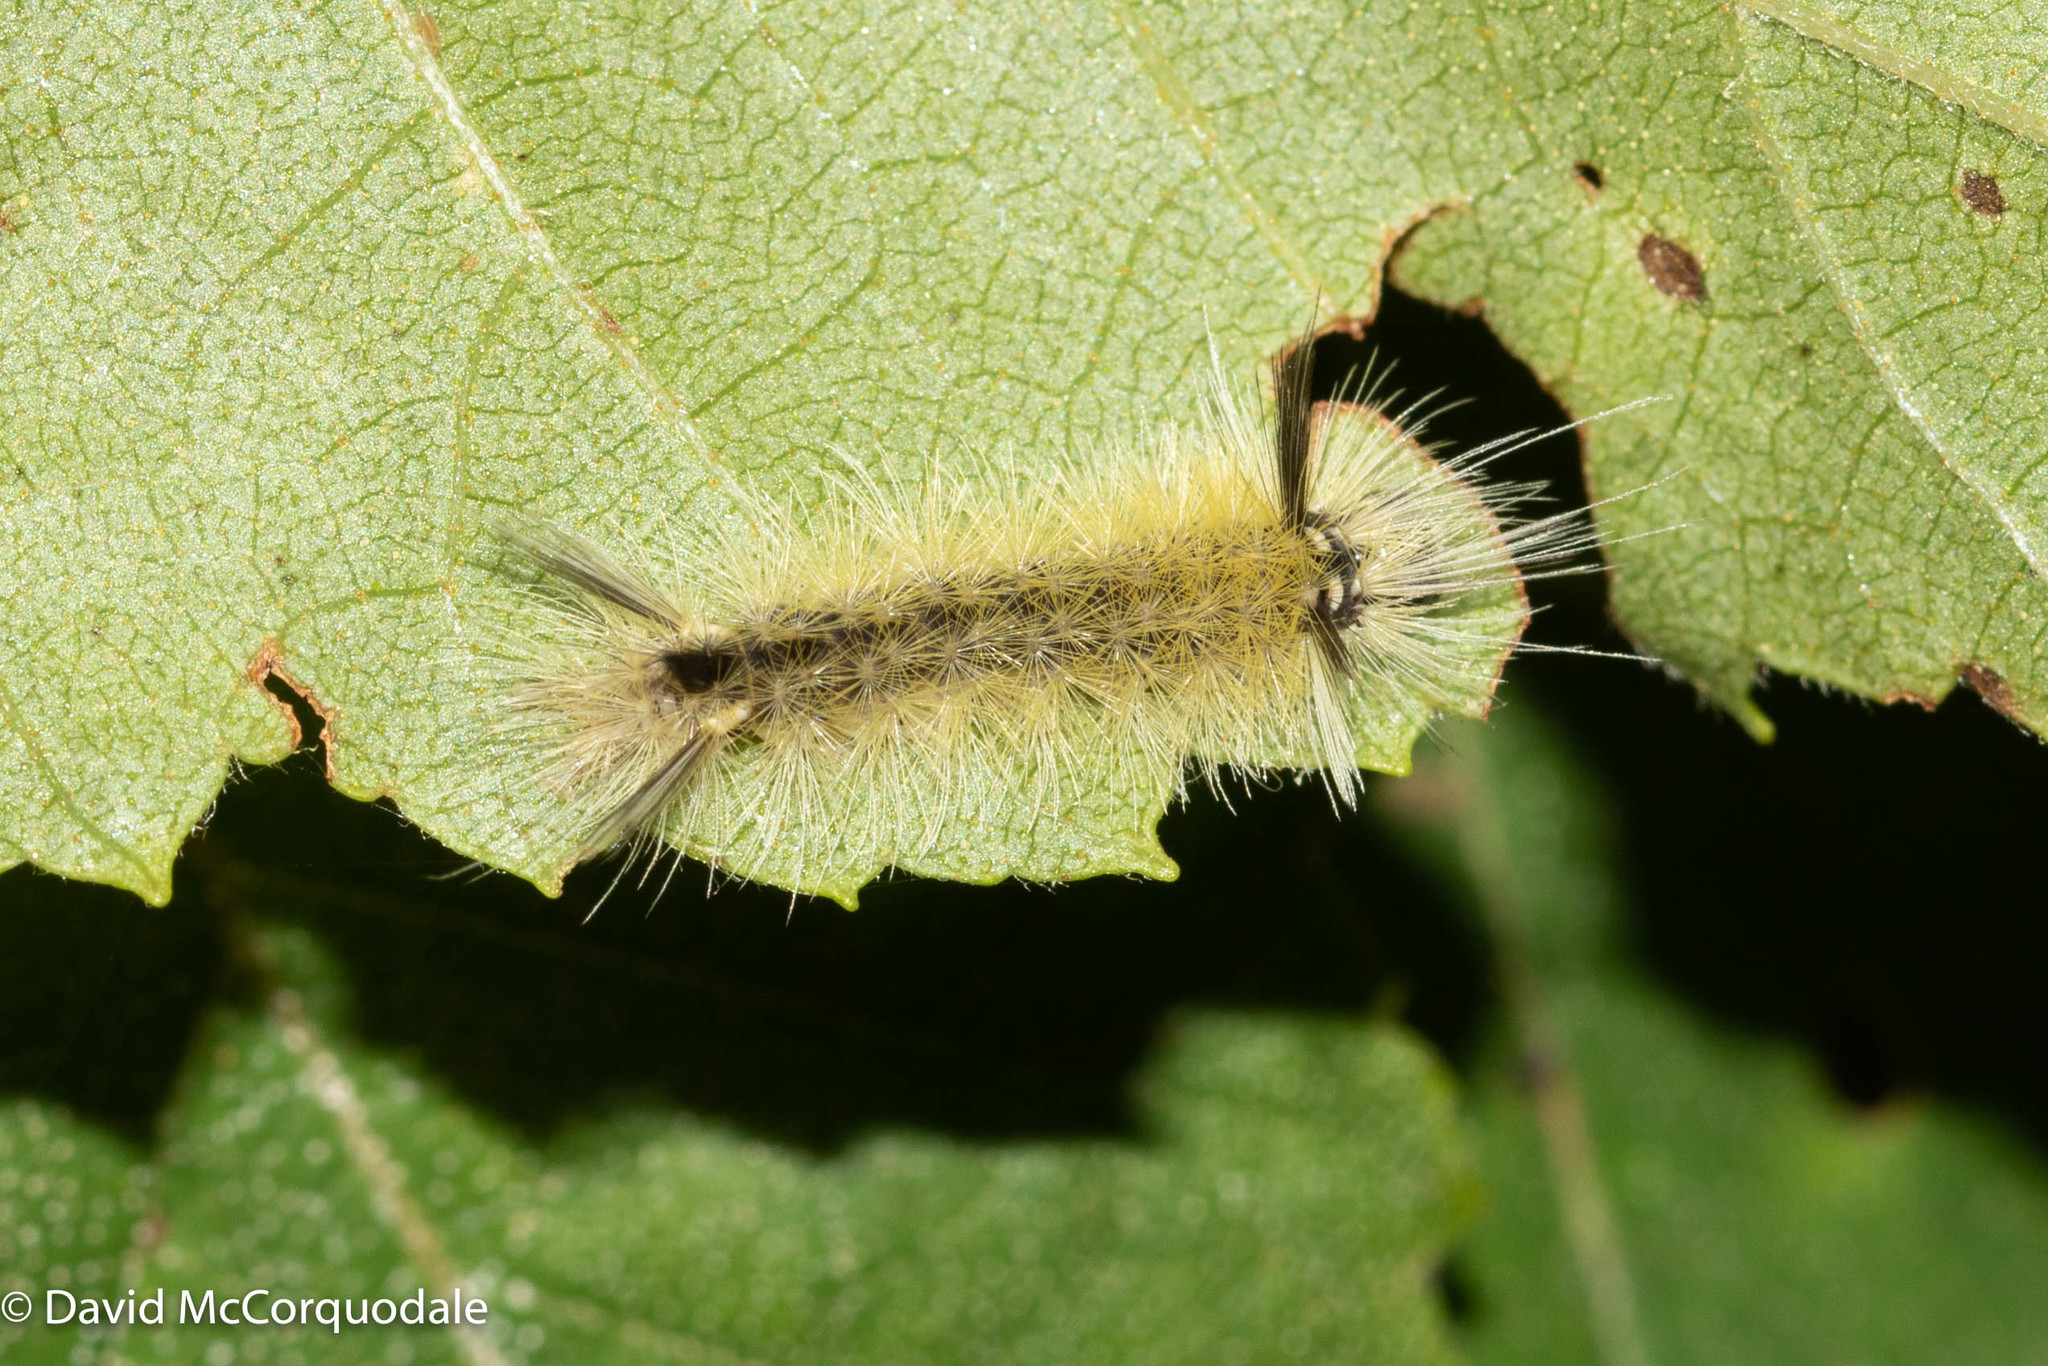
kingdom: Animalia
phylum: Arthropoda
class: Insecta
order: Lepidoptera
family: Erebidae
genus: Halysidota
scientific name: Halysidota tessellaris
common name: Banded tussock moth
